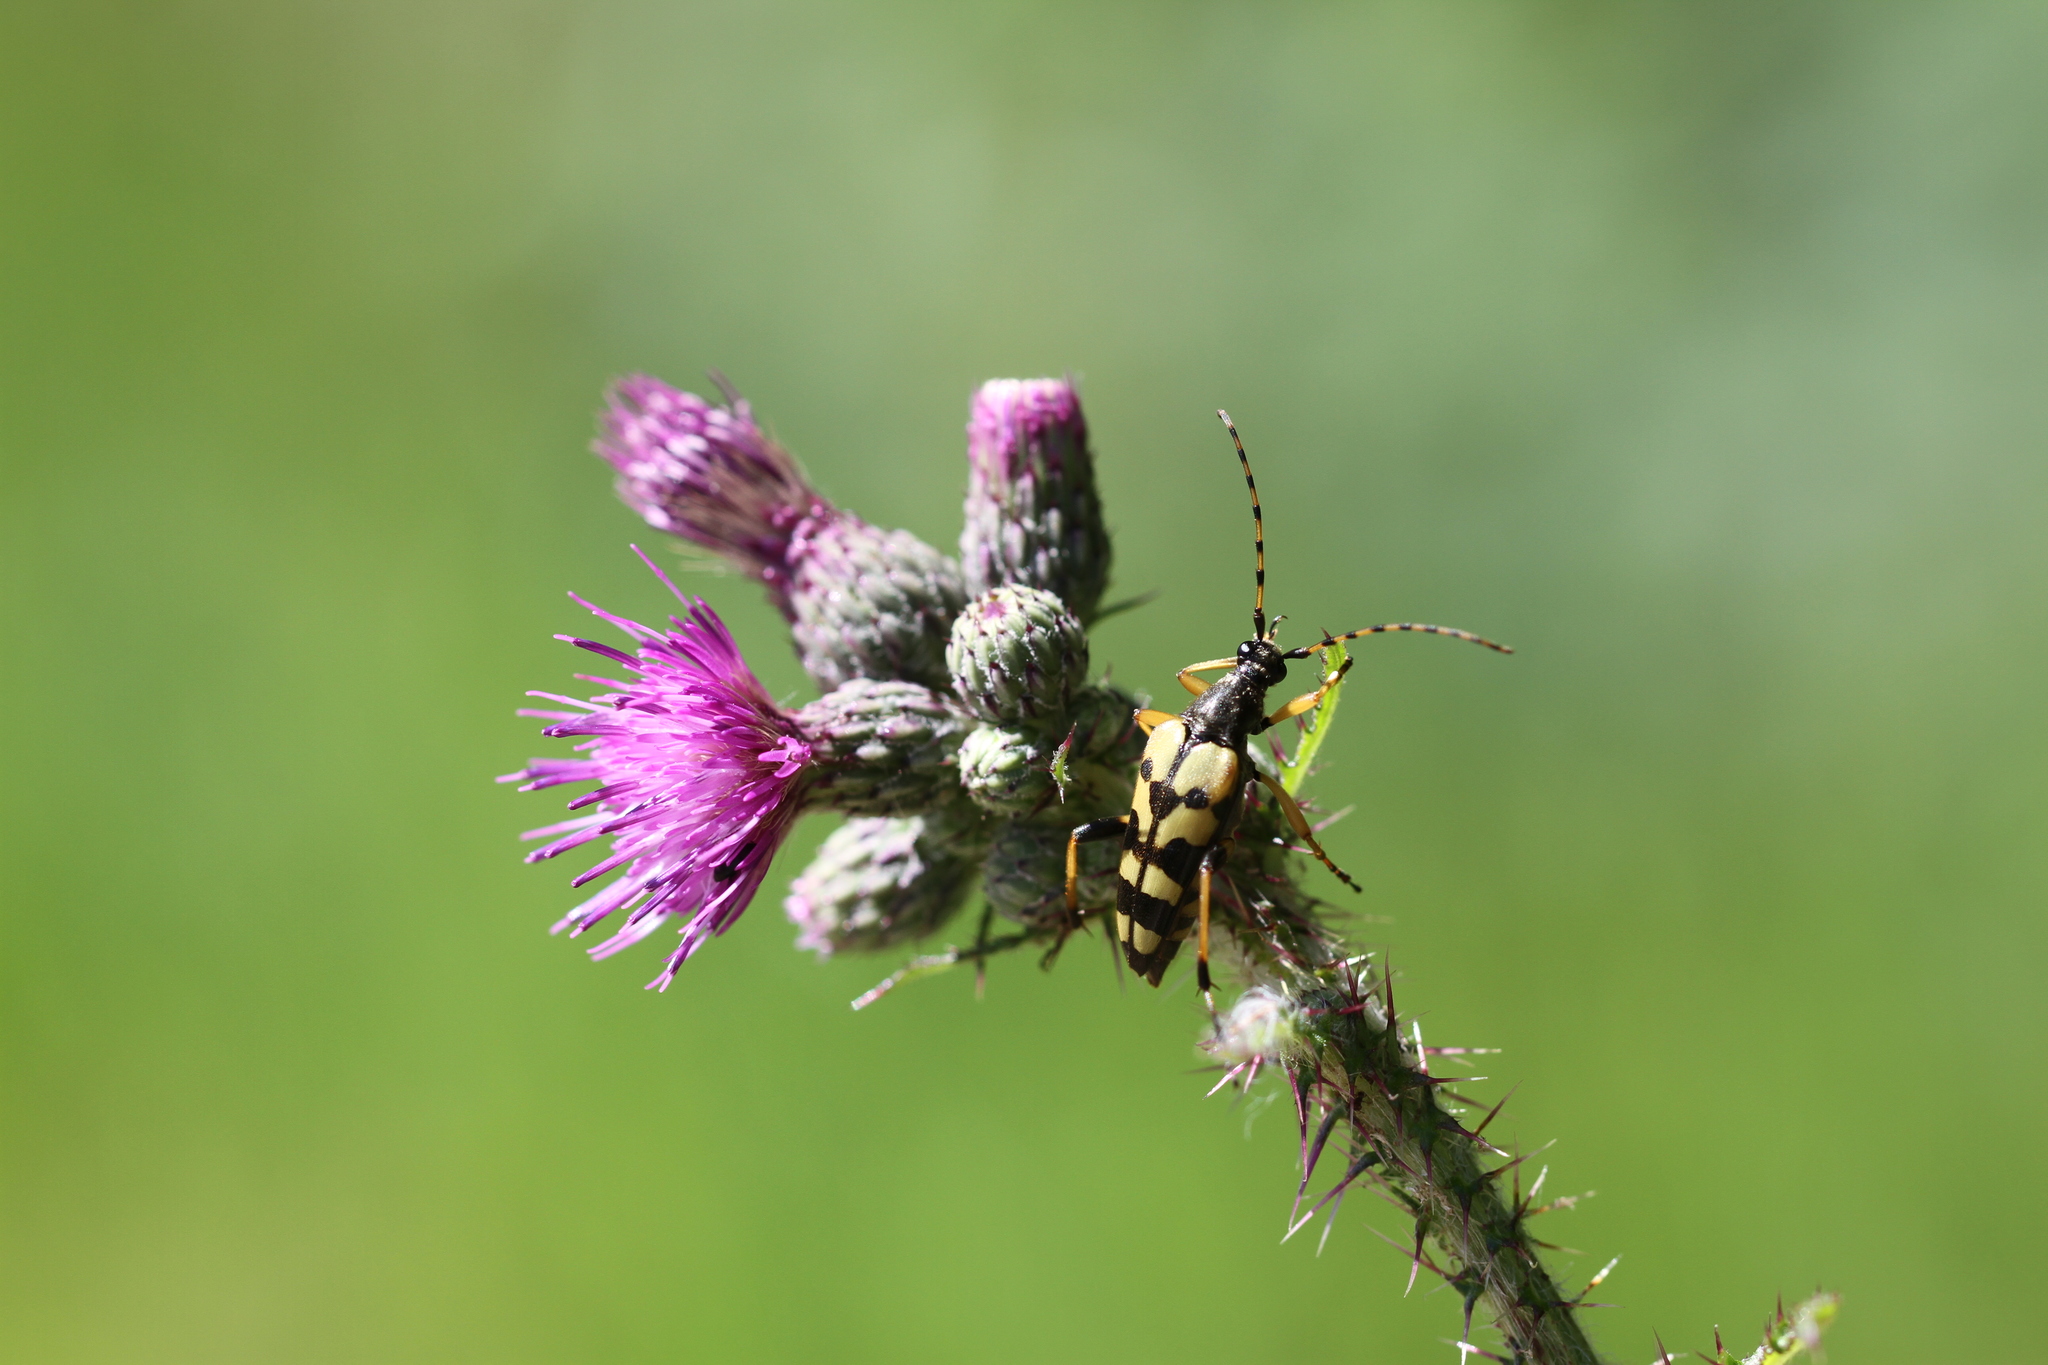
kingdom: Animalia
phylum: Arthropoda
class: Insecta
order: Coleoptera
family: Cerambycidae
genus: Rutpela
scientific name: Rutpela maculata
